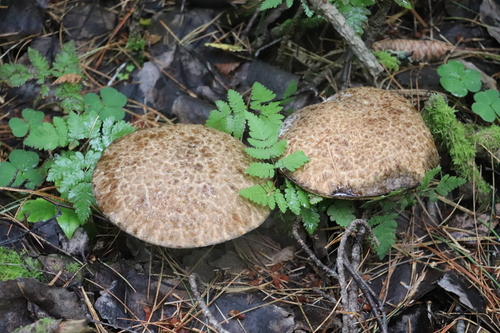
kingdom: Fungi
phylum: Basidiomycota
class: Agaricomycetes
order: Boletales
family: Suillaceae
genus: Suillus
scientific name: Suillus spraguei
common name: Painted suillus
